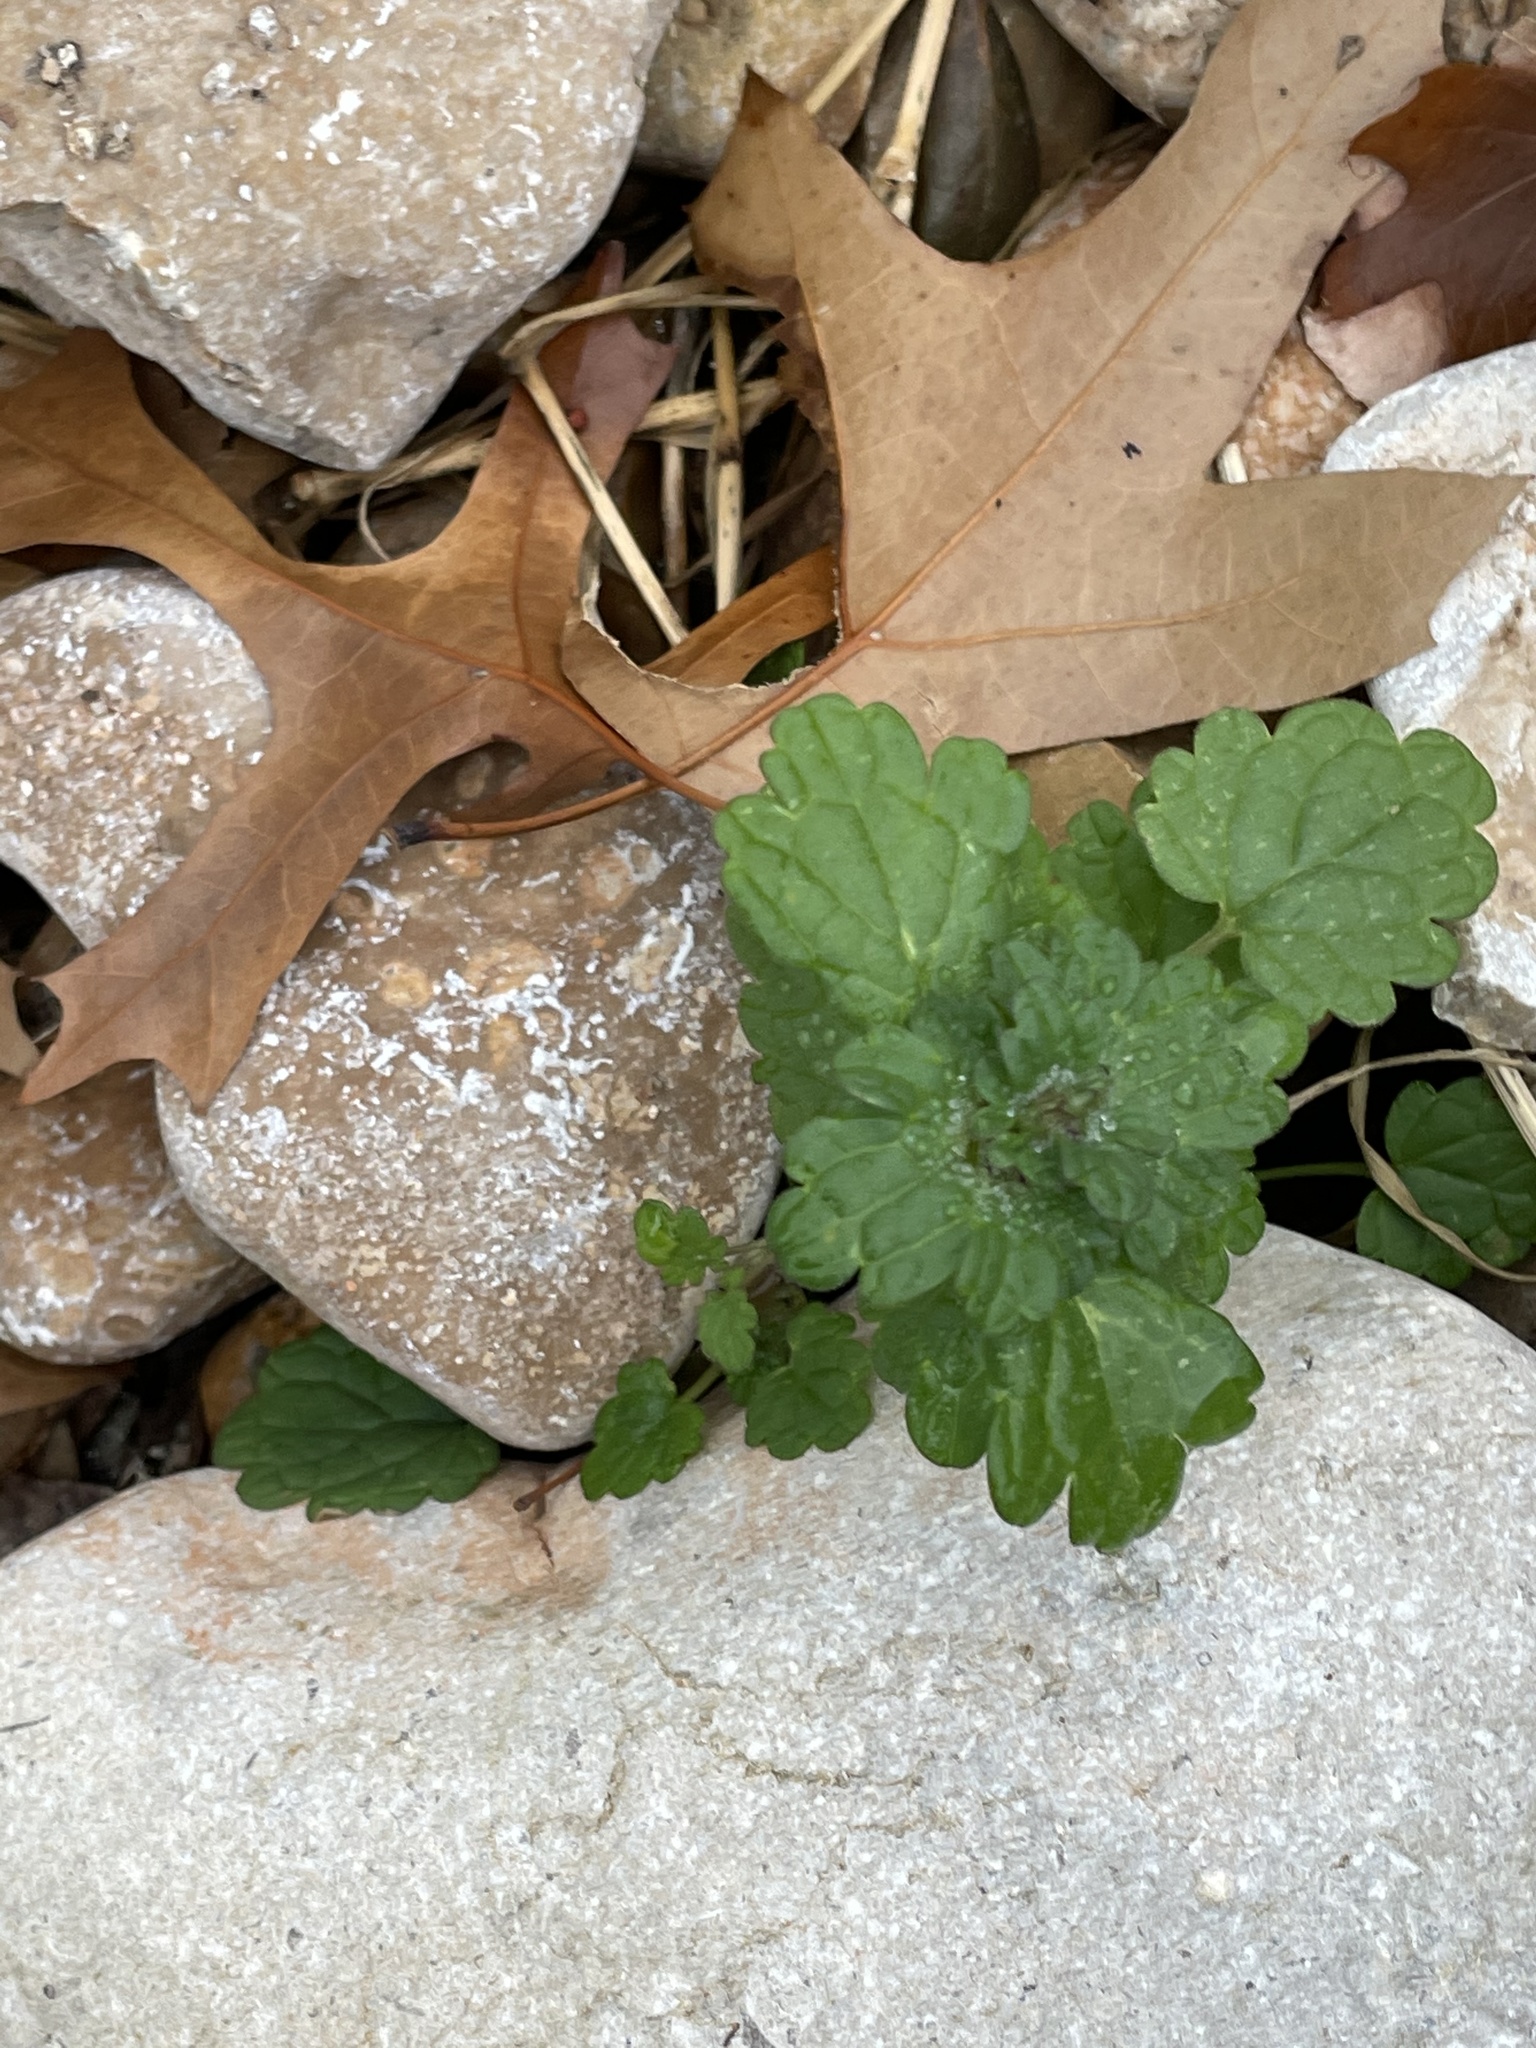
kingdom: Plantae
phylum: Tracheophyta
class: Magnoliopsida
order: Lamiales
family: Lamiaceae
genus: Lamium
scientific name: Lamium amplexicaule
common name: Henbit dead-nettle
